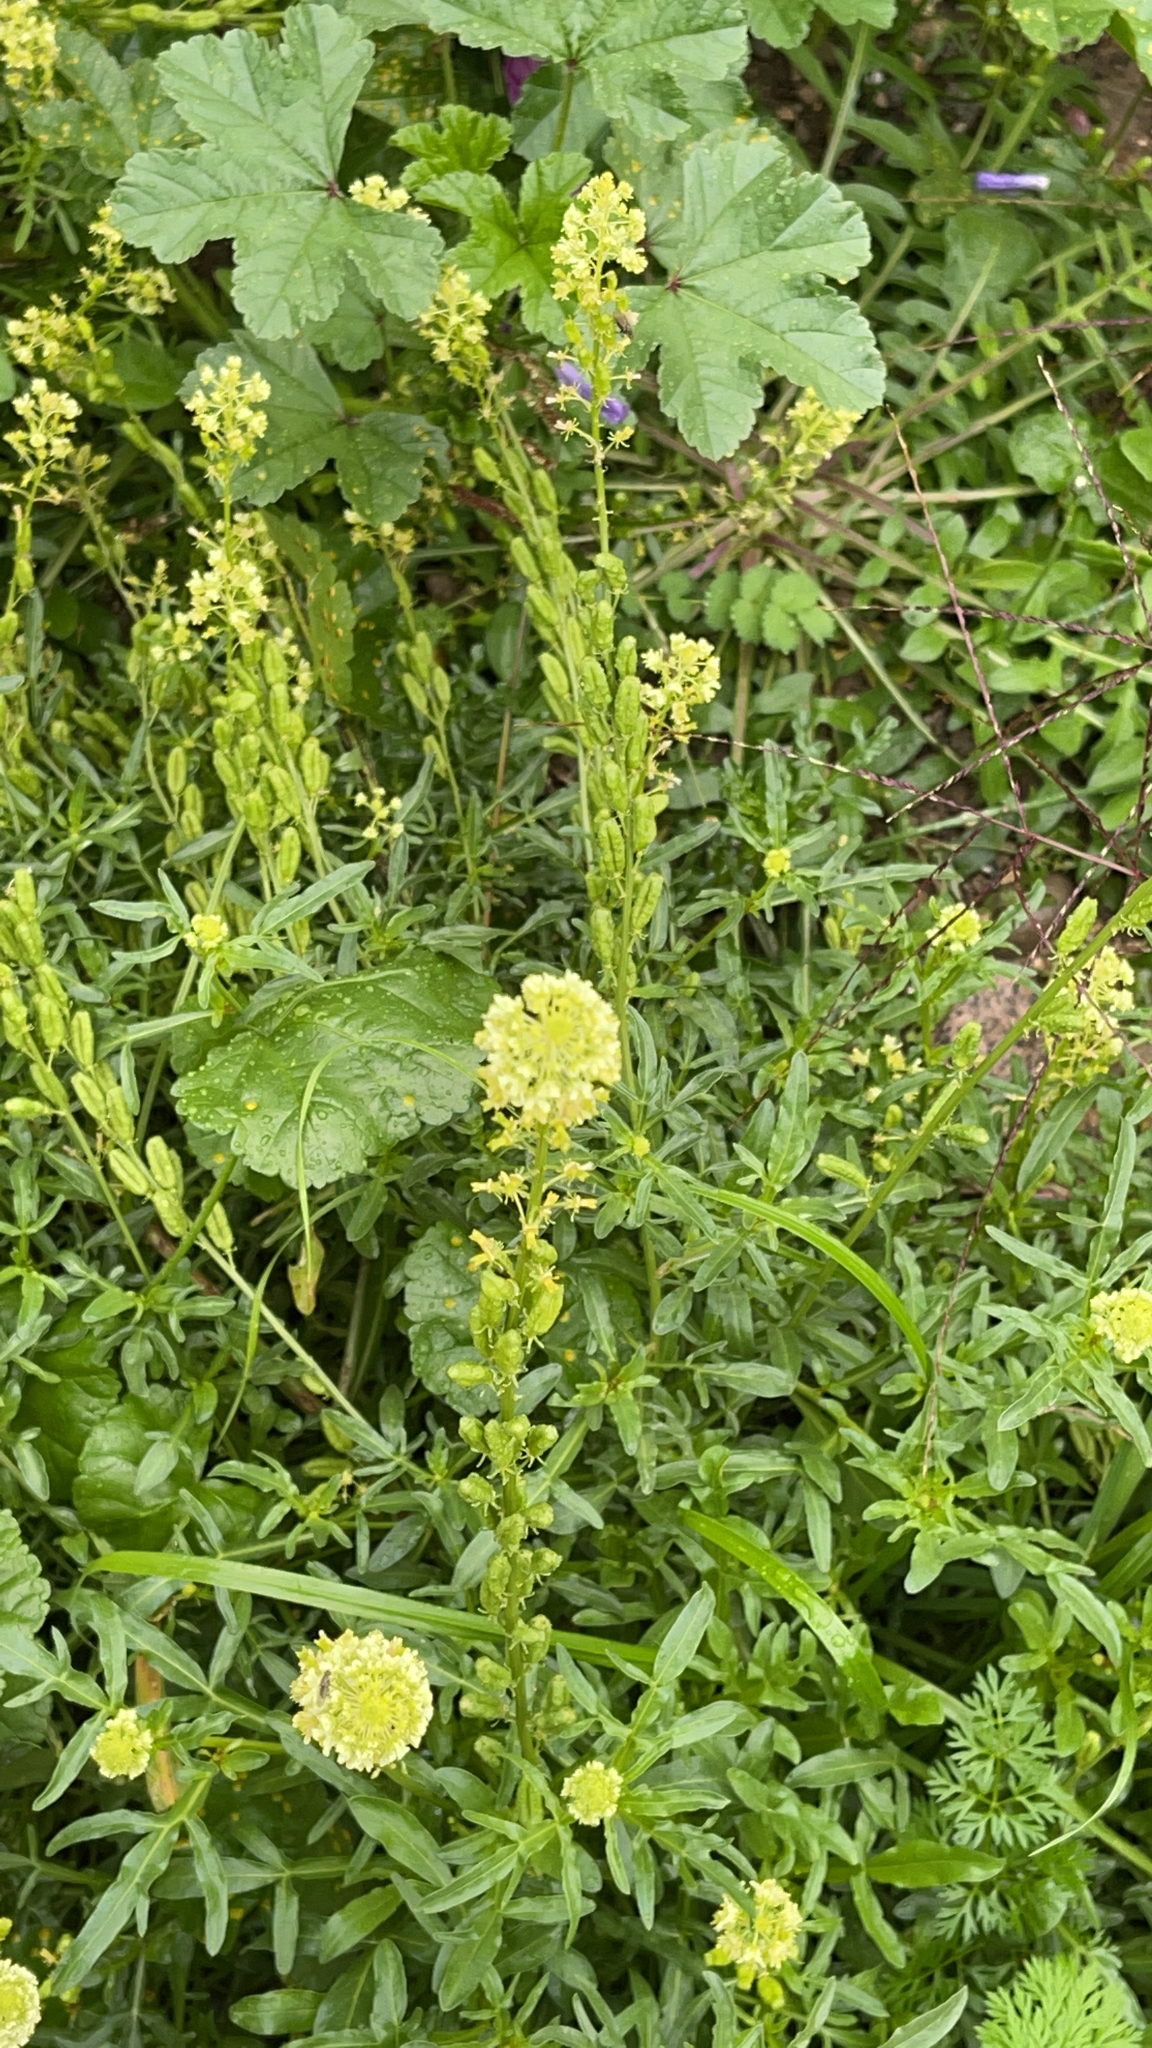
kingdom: Plantae
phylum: Tracheophyta
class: Magnoliopsida
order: Brassicales
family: Resedaceae
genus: Reseda
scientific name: Reseda lutea
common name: Wild mignonette
